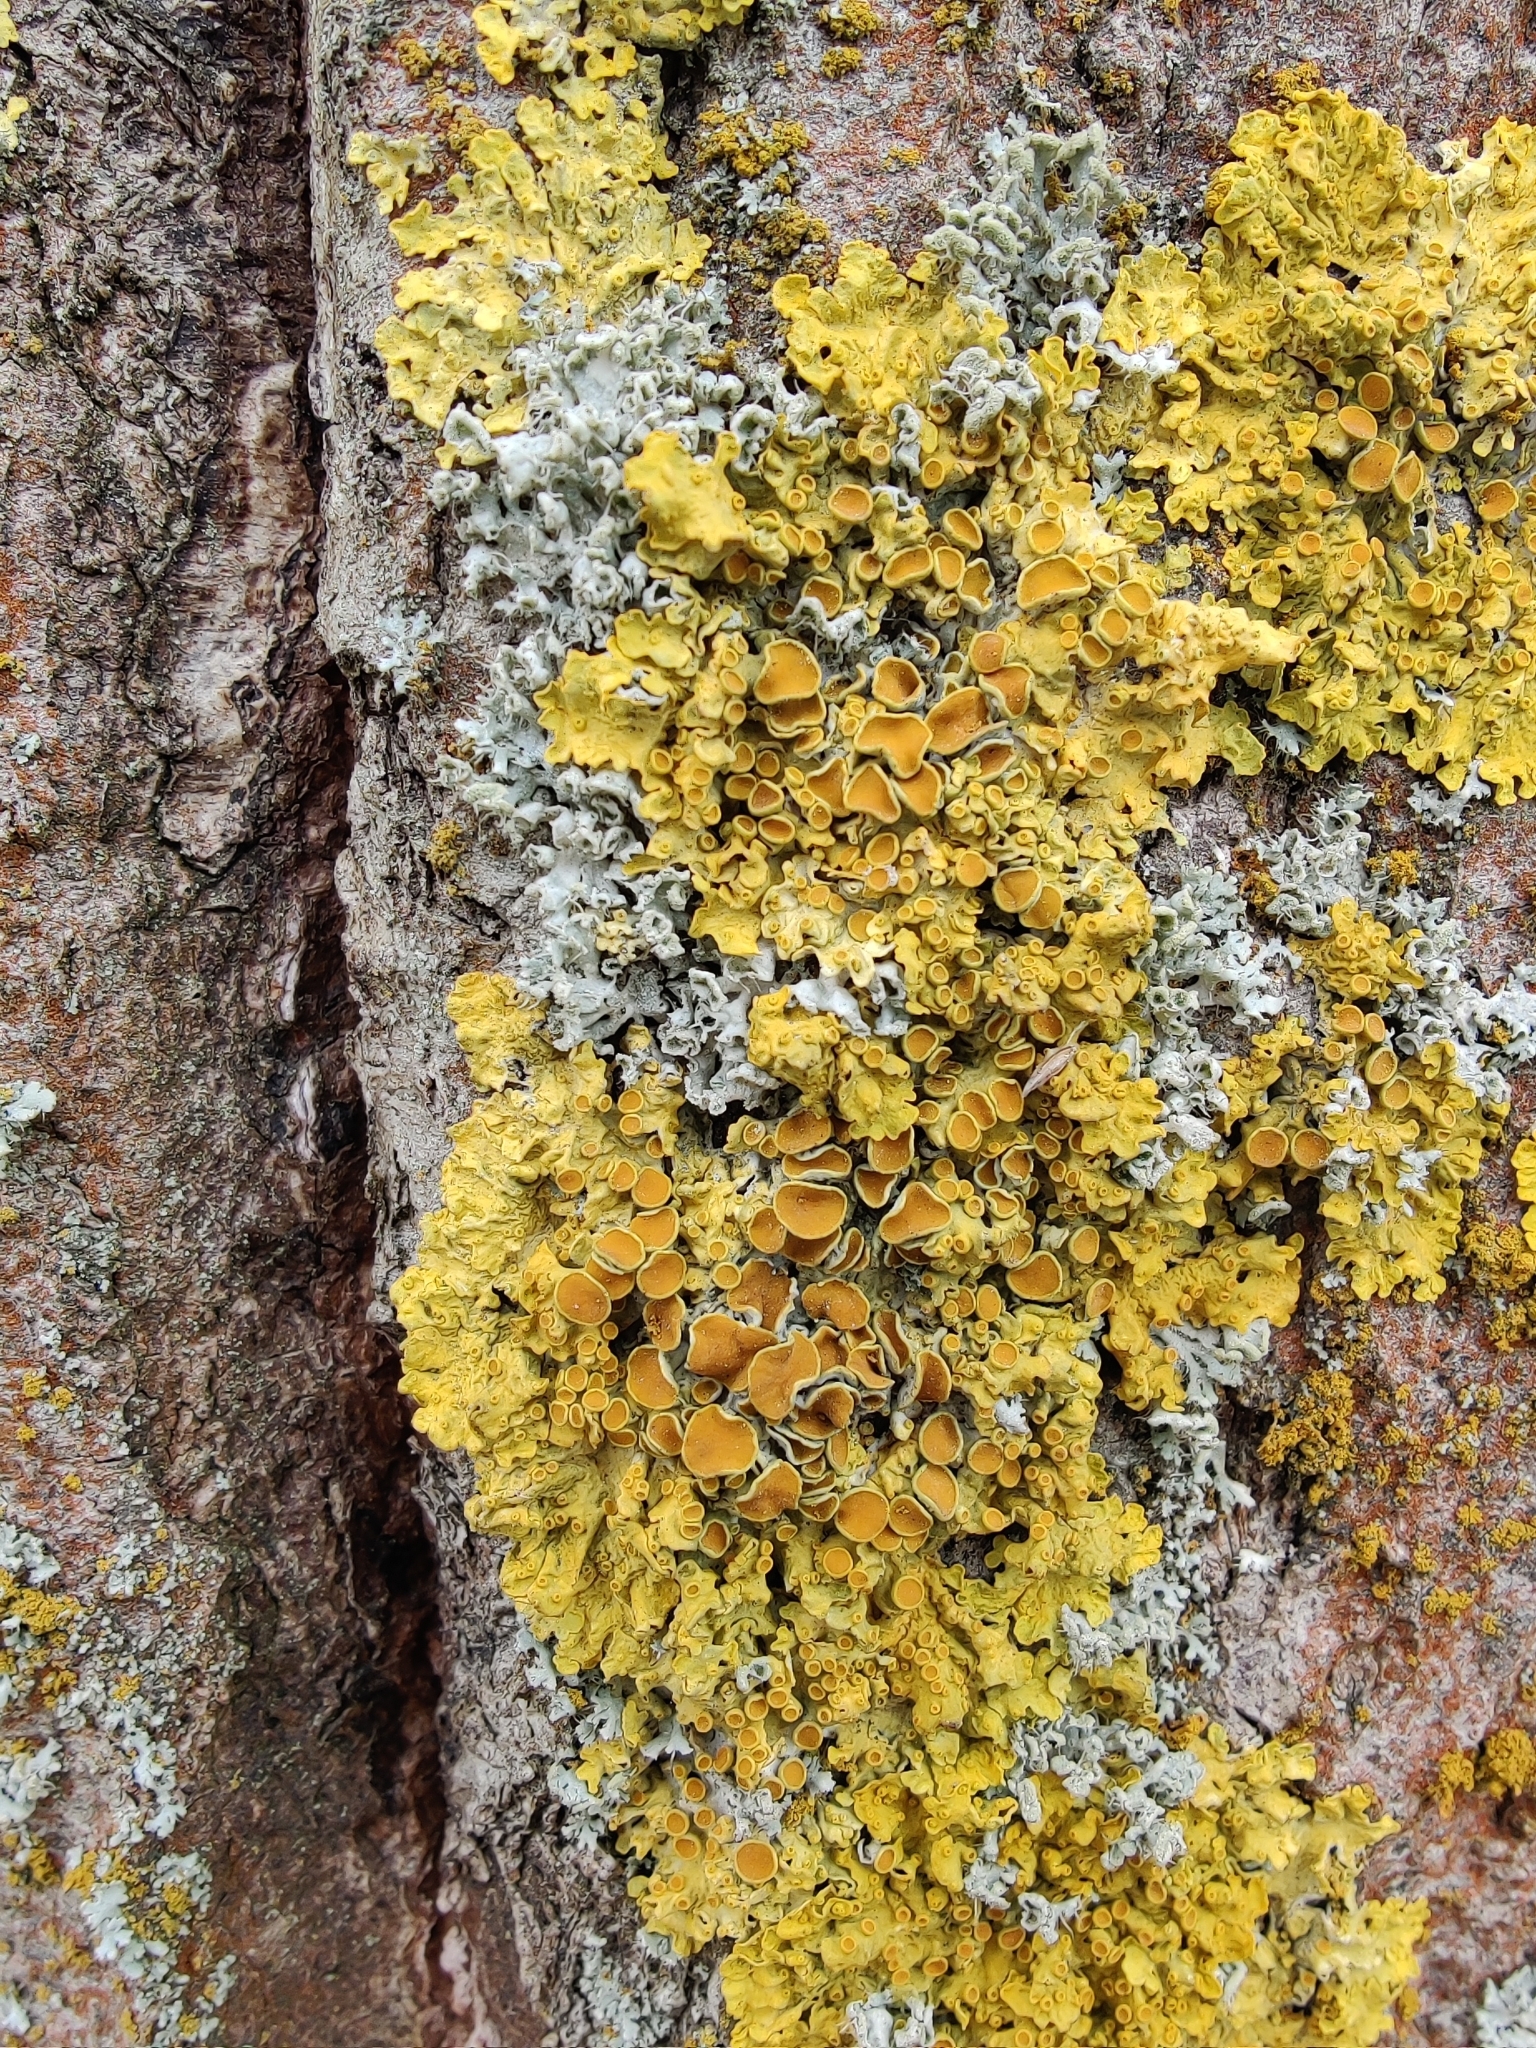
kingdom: Fungi
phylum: Ascomycota
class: Lecanoromycetes
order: Teloschistales
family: Teloschistaceae
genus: Xanthoria
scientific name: Xanthoria parietina
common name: Common orange lichen
